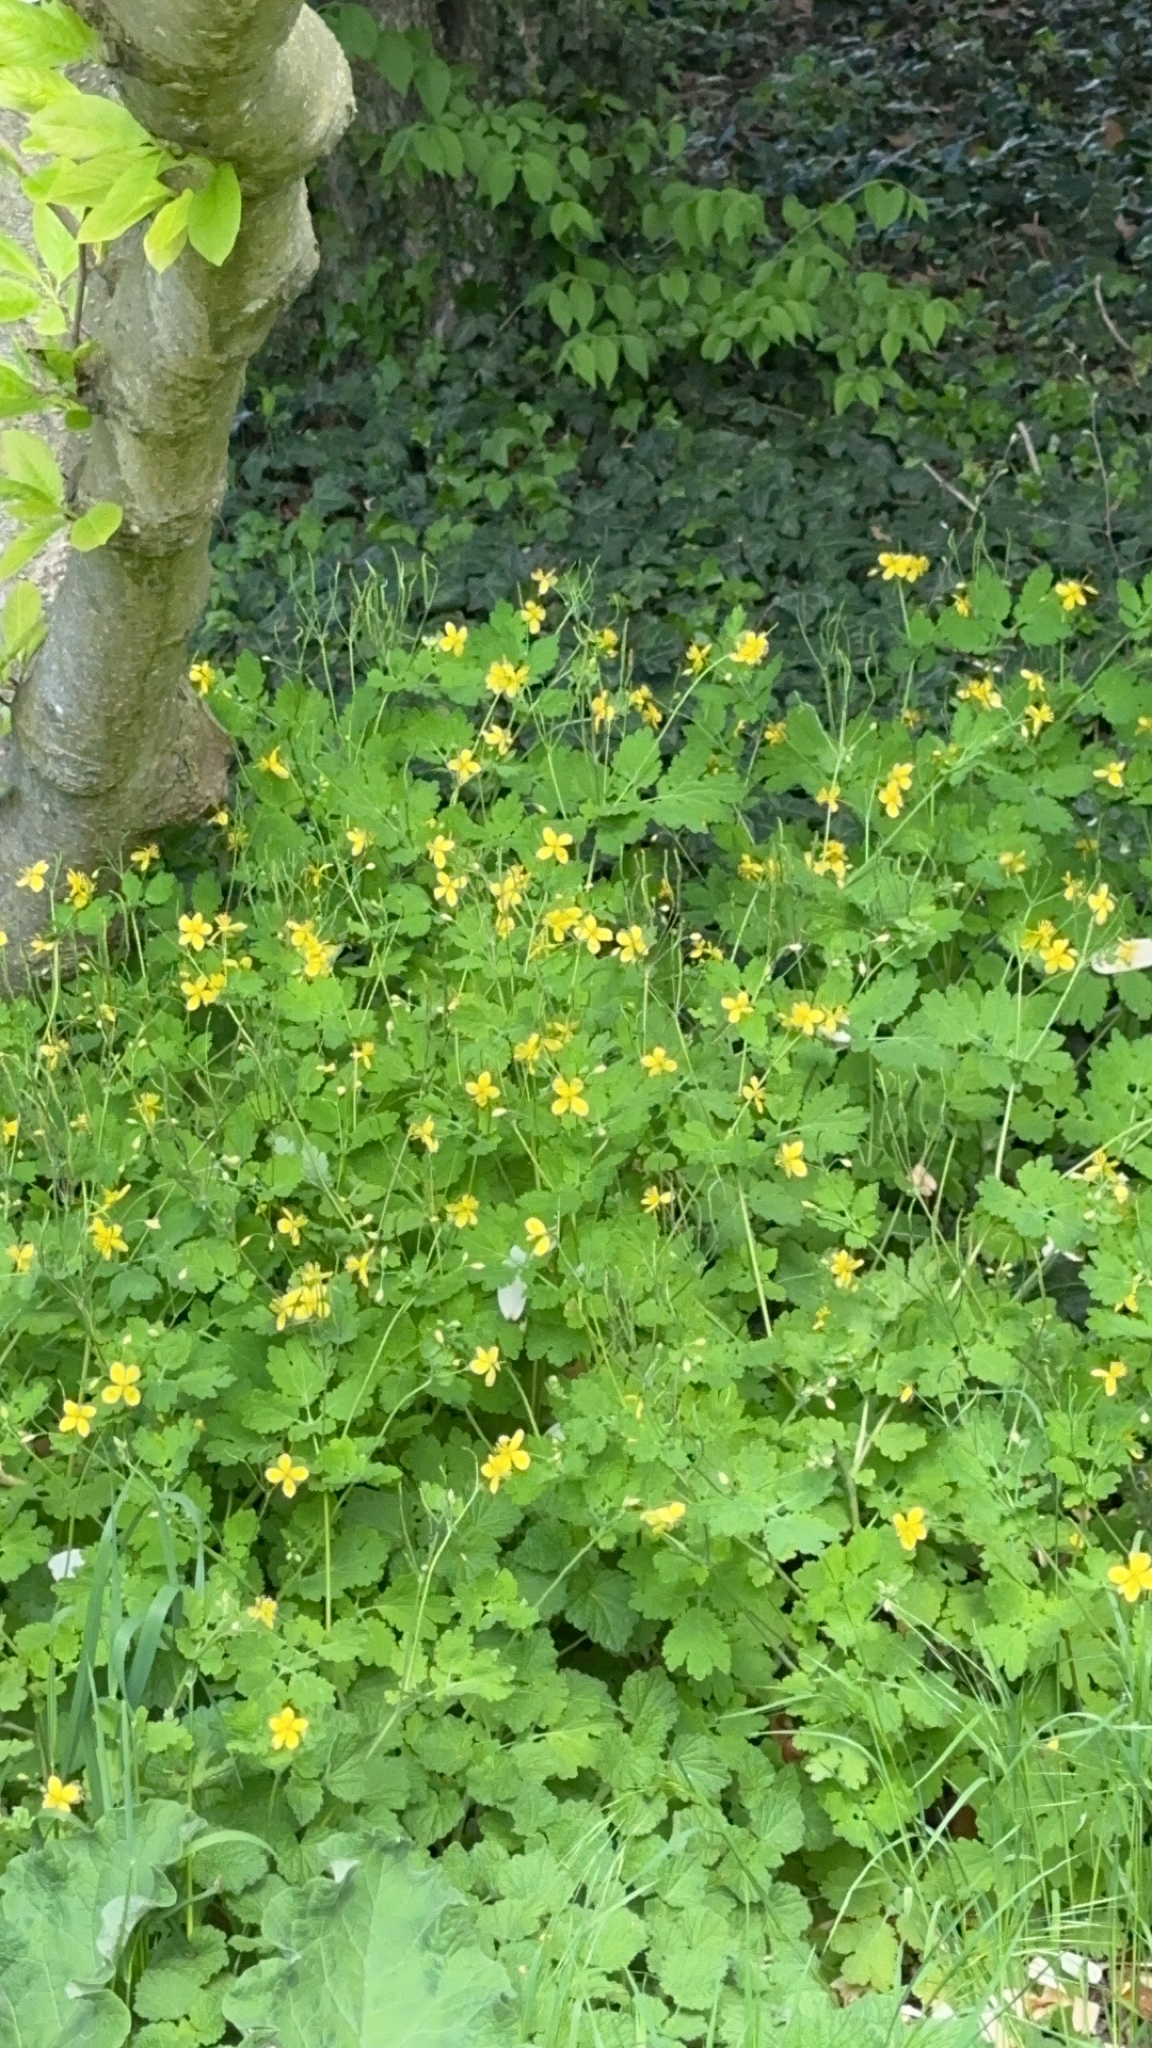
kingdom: Plantae
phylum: Tracheophyta
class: Magnoliopsida
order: Ranunculales
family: Papaveraceae
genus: Chelidonium
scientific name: Chelidonium majus
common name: Greater celandine
